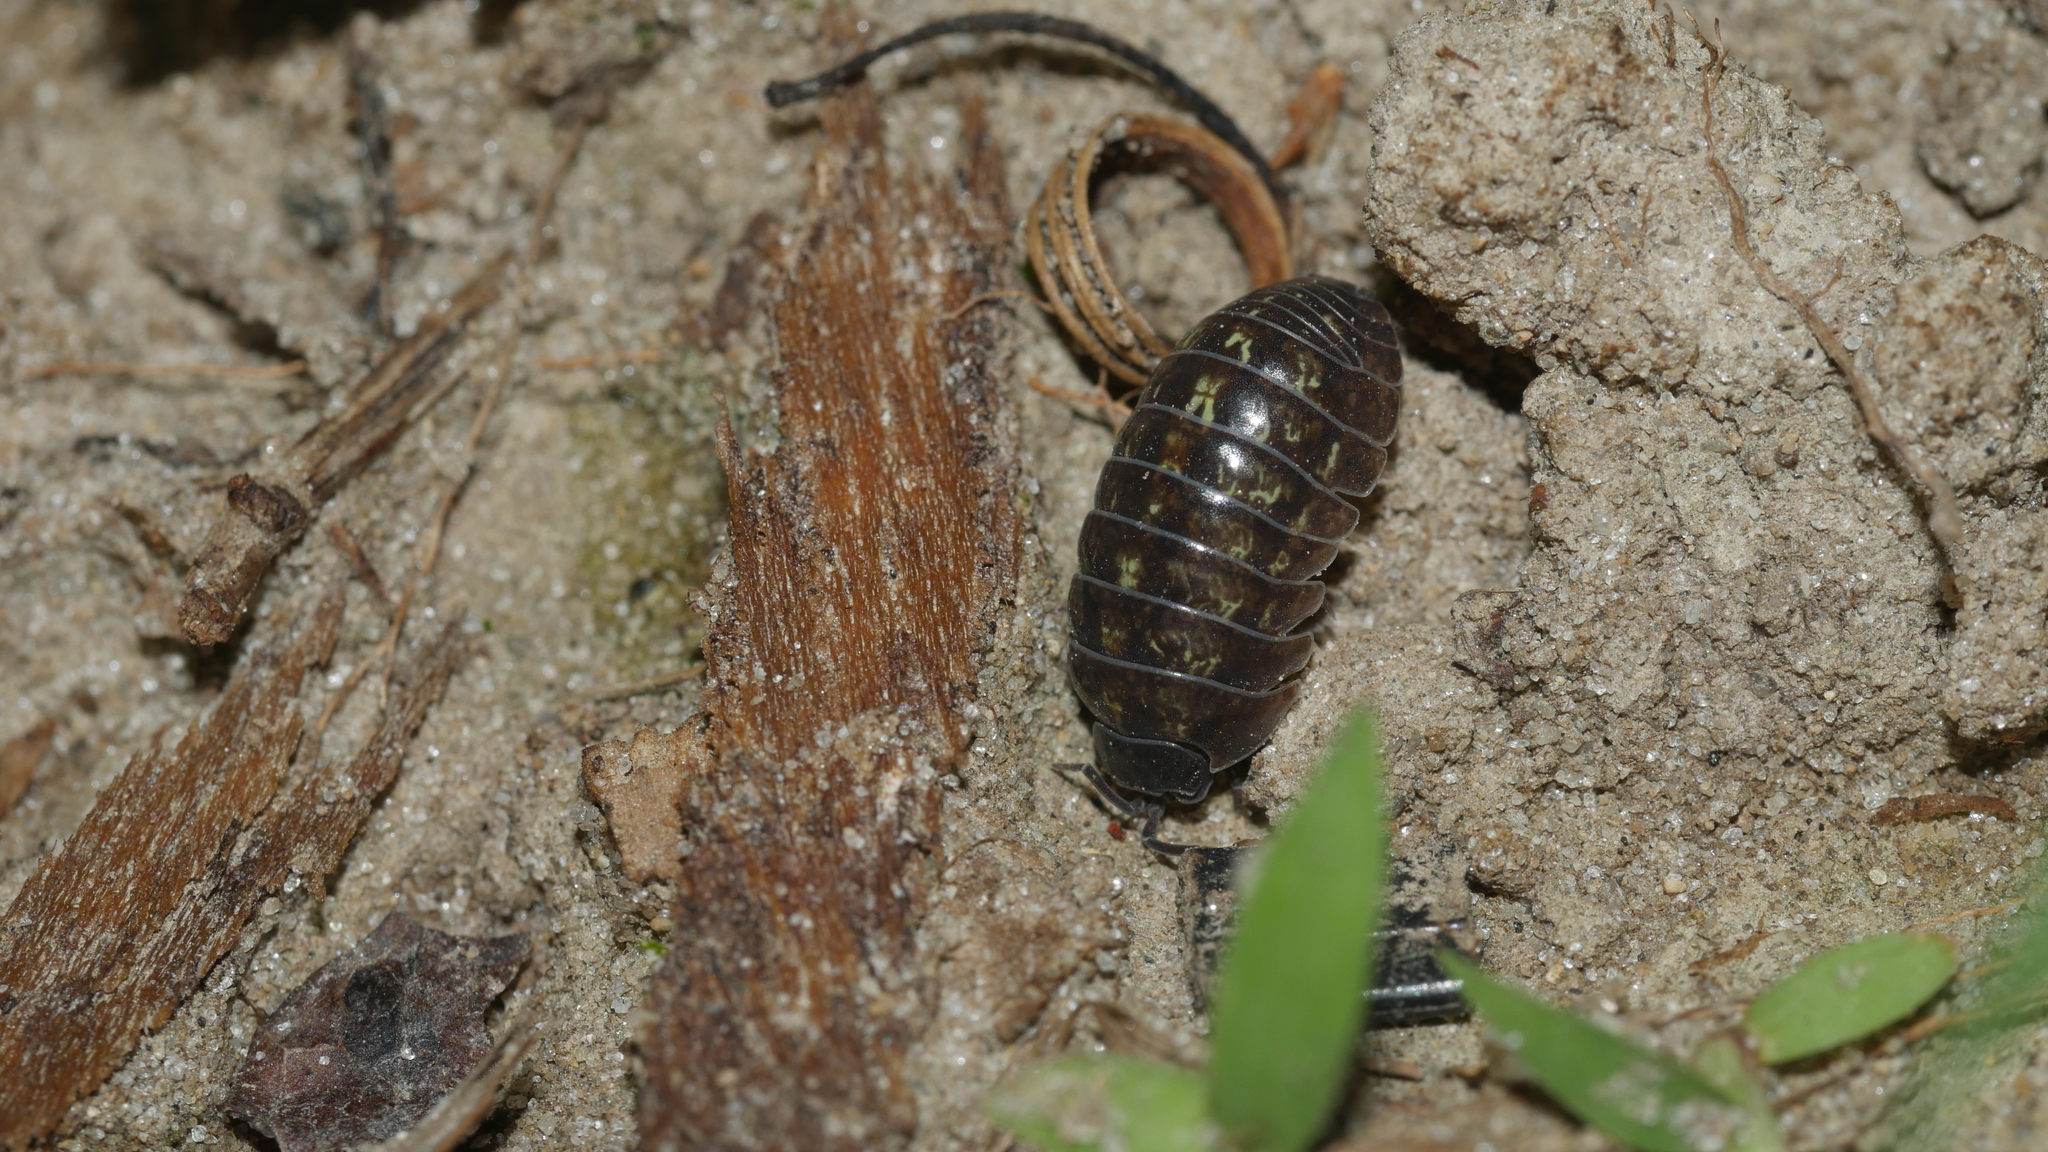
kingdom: Animalia
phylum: Arthropoda
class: Malacostraca
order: Isopoda
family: Armadillidiidae
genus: Armadillidium
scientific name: Armadillidium vulgare
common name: Common pill woodlouse
